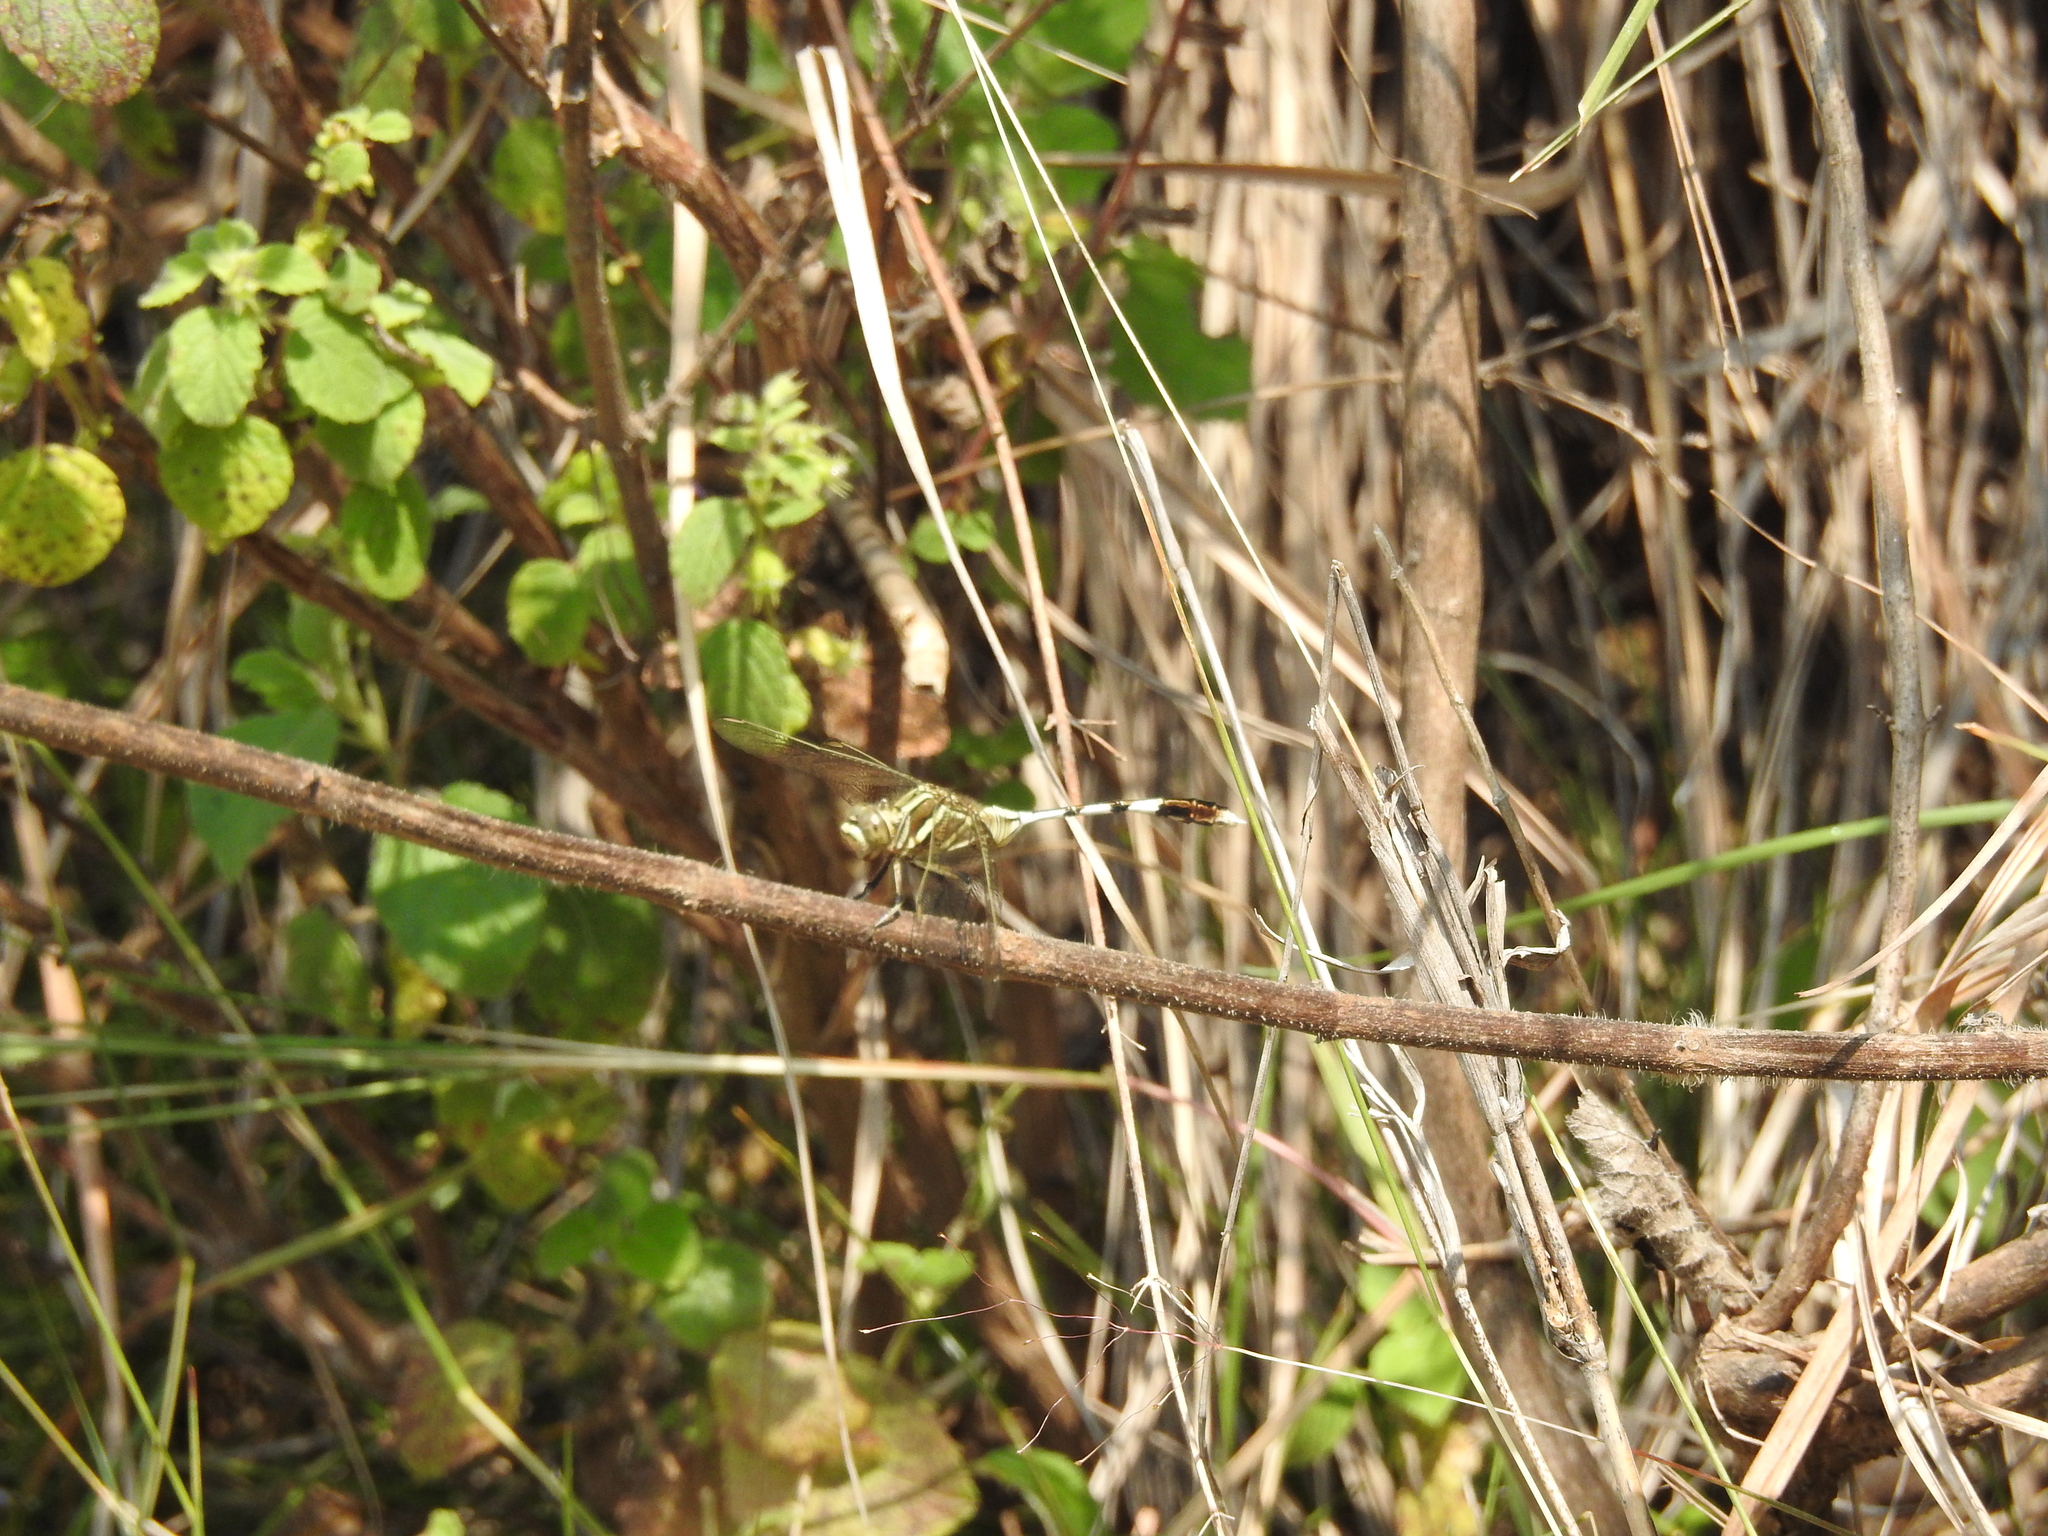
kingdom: Animalia
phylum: Arthropoda
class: Insecta
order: Odonata
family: Libellulidae
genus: Orthetrum
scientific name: Orthetrum sabina
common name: Slender skimmer
